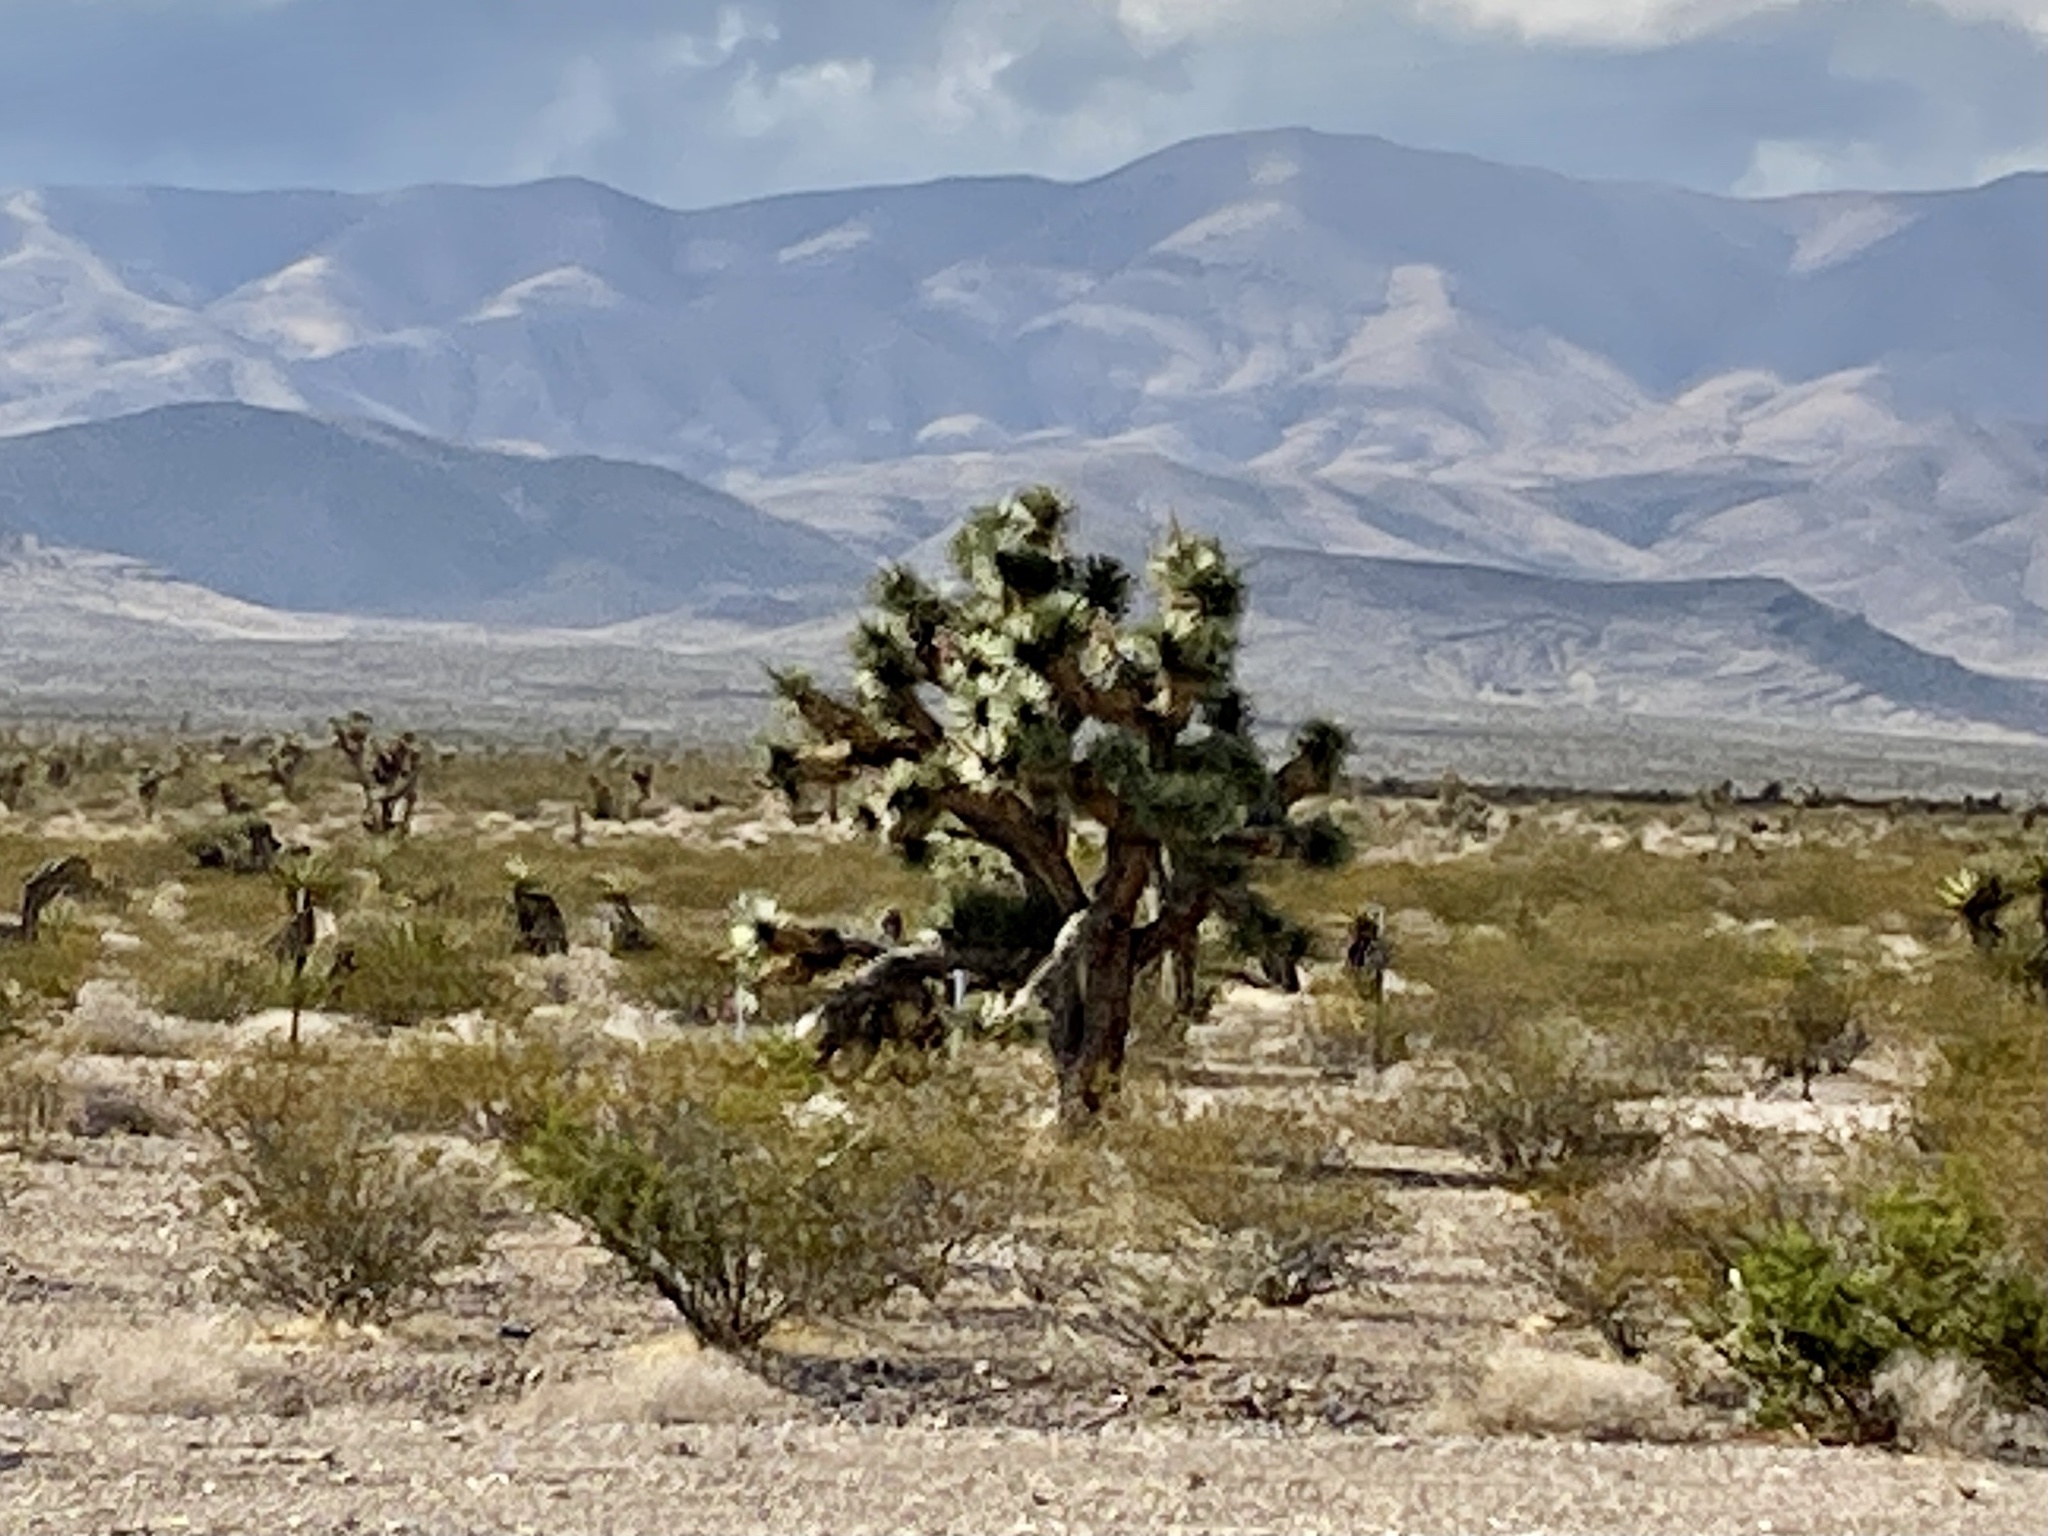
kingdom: Plantae
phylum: Tracheophyta
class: Liliopsida
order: Asparagales
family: Asparagaceae
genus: Yucca
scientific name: Yucca brevifolia
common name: Joshua tree
